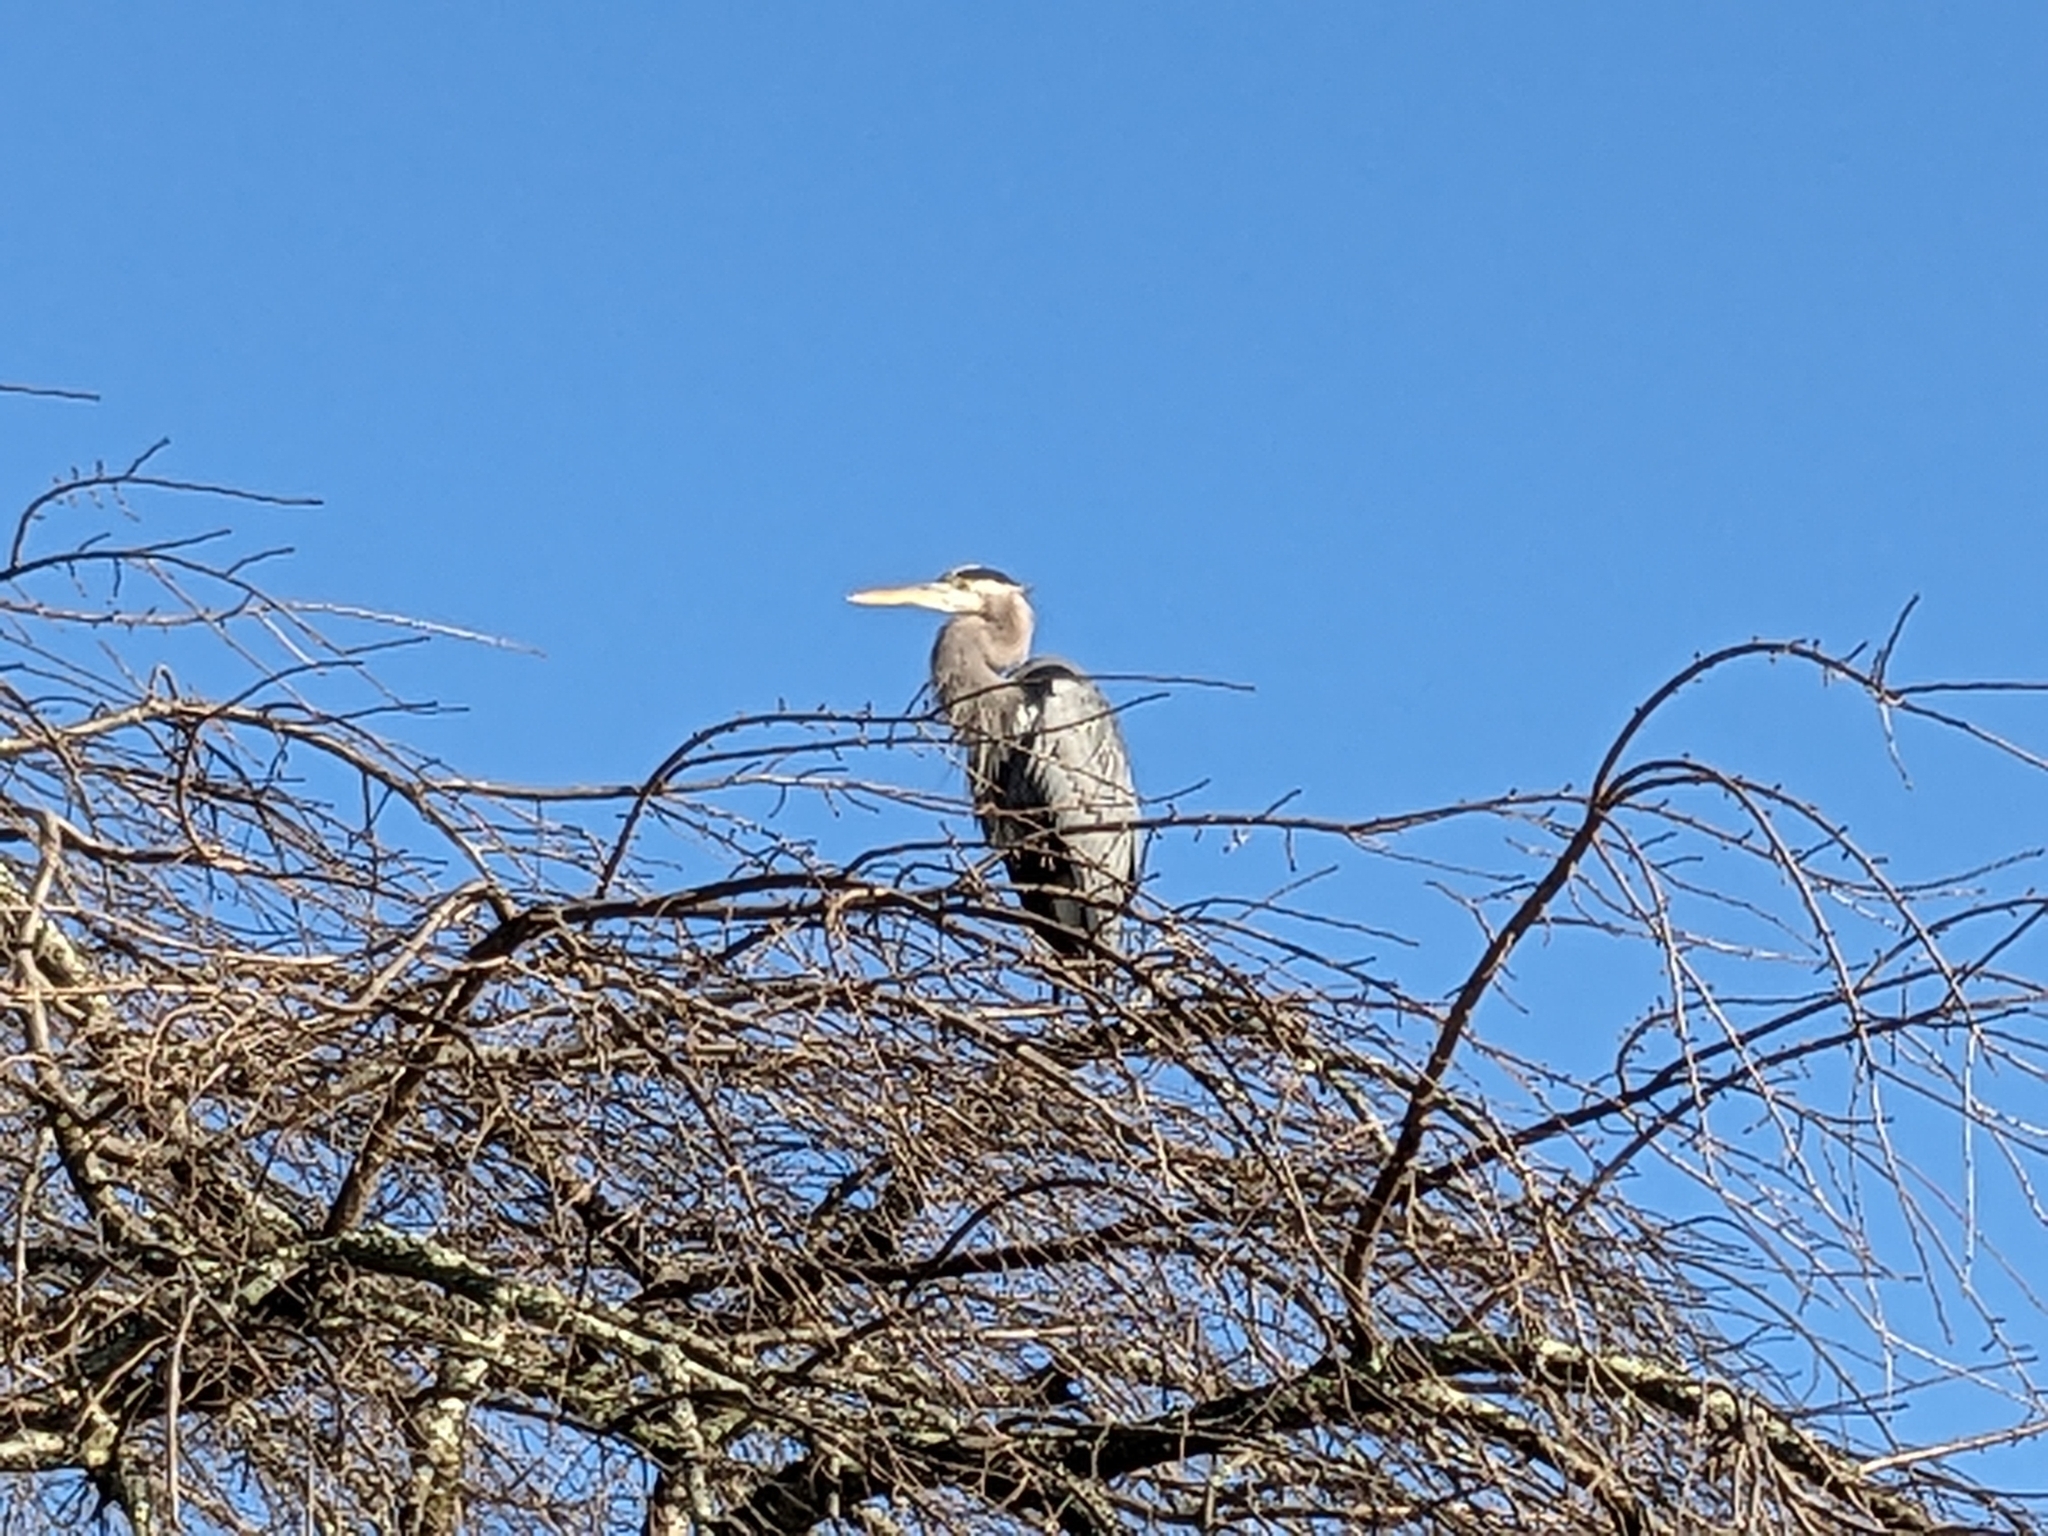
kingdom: Animalia
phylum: Chordata
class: Aves
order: Pelecaniformes
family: Ardeidae
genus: Ardea
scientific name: Ardea herodias
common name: Great blue heron
